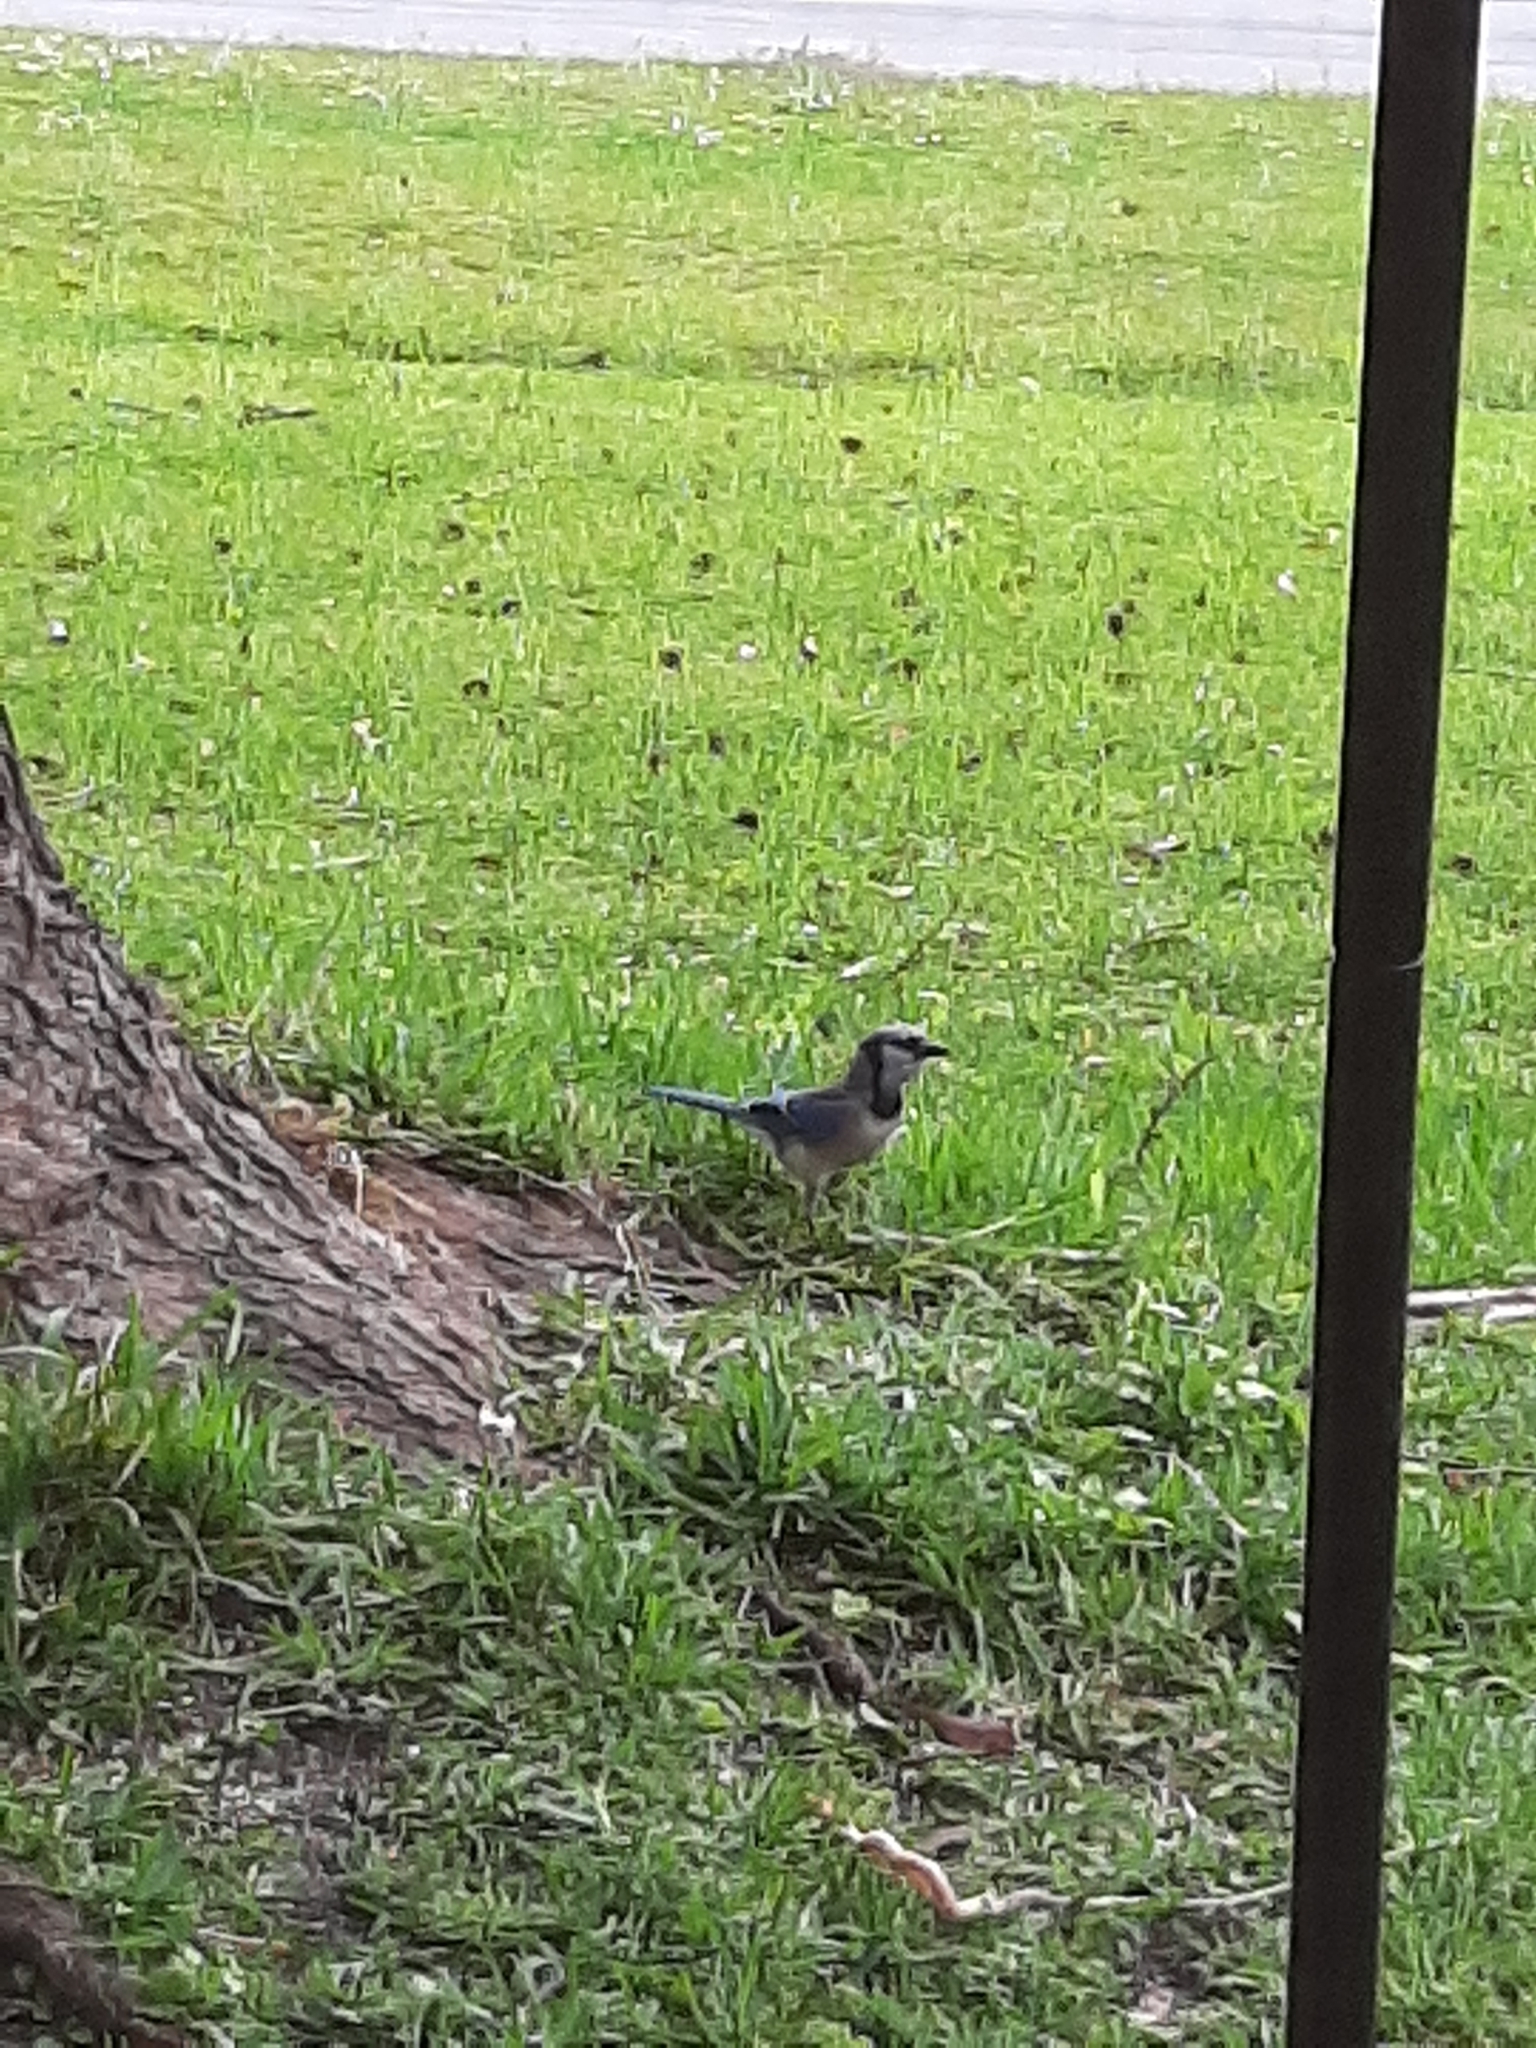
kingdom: Animalia
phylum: Chordata
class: Aves
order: Passeriformes
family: Corvidae
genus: Cyanocitta
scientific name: Cyanocitta cristata
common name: Blue jay
